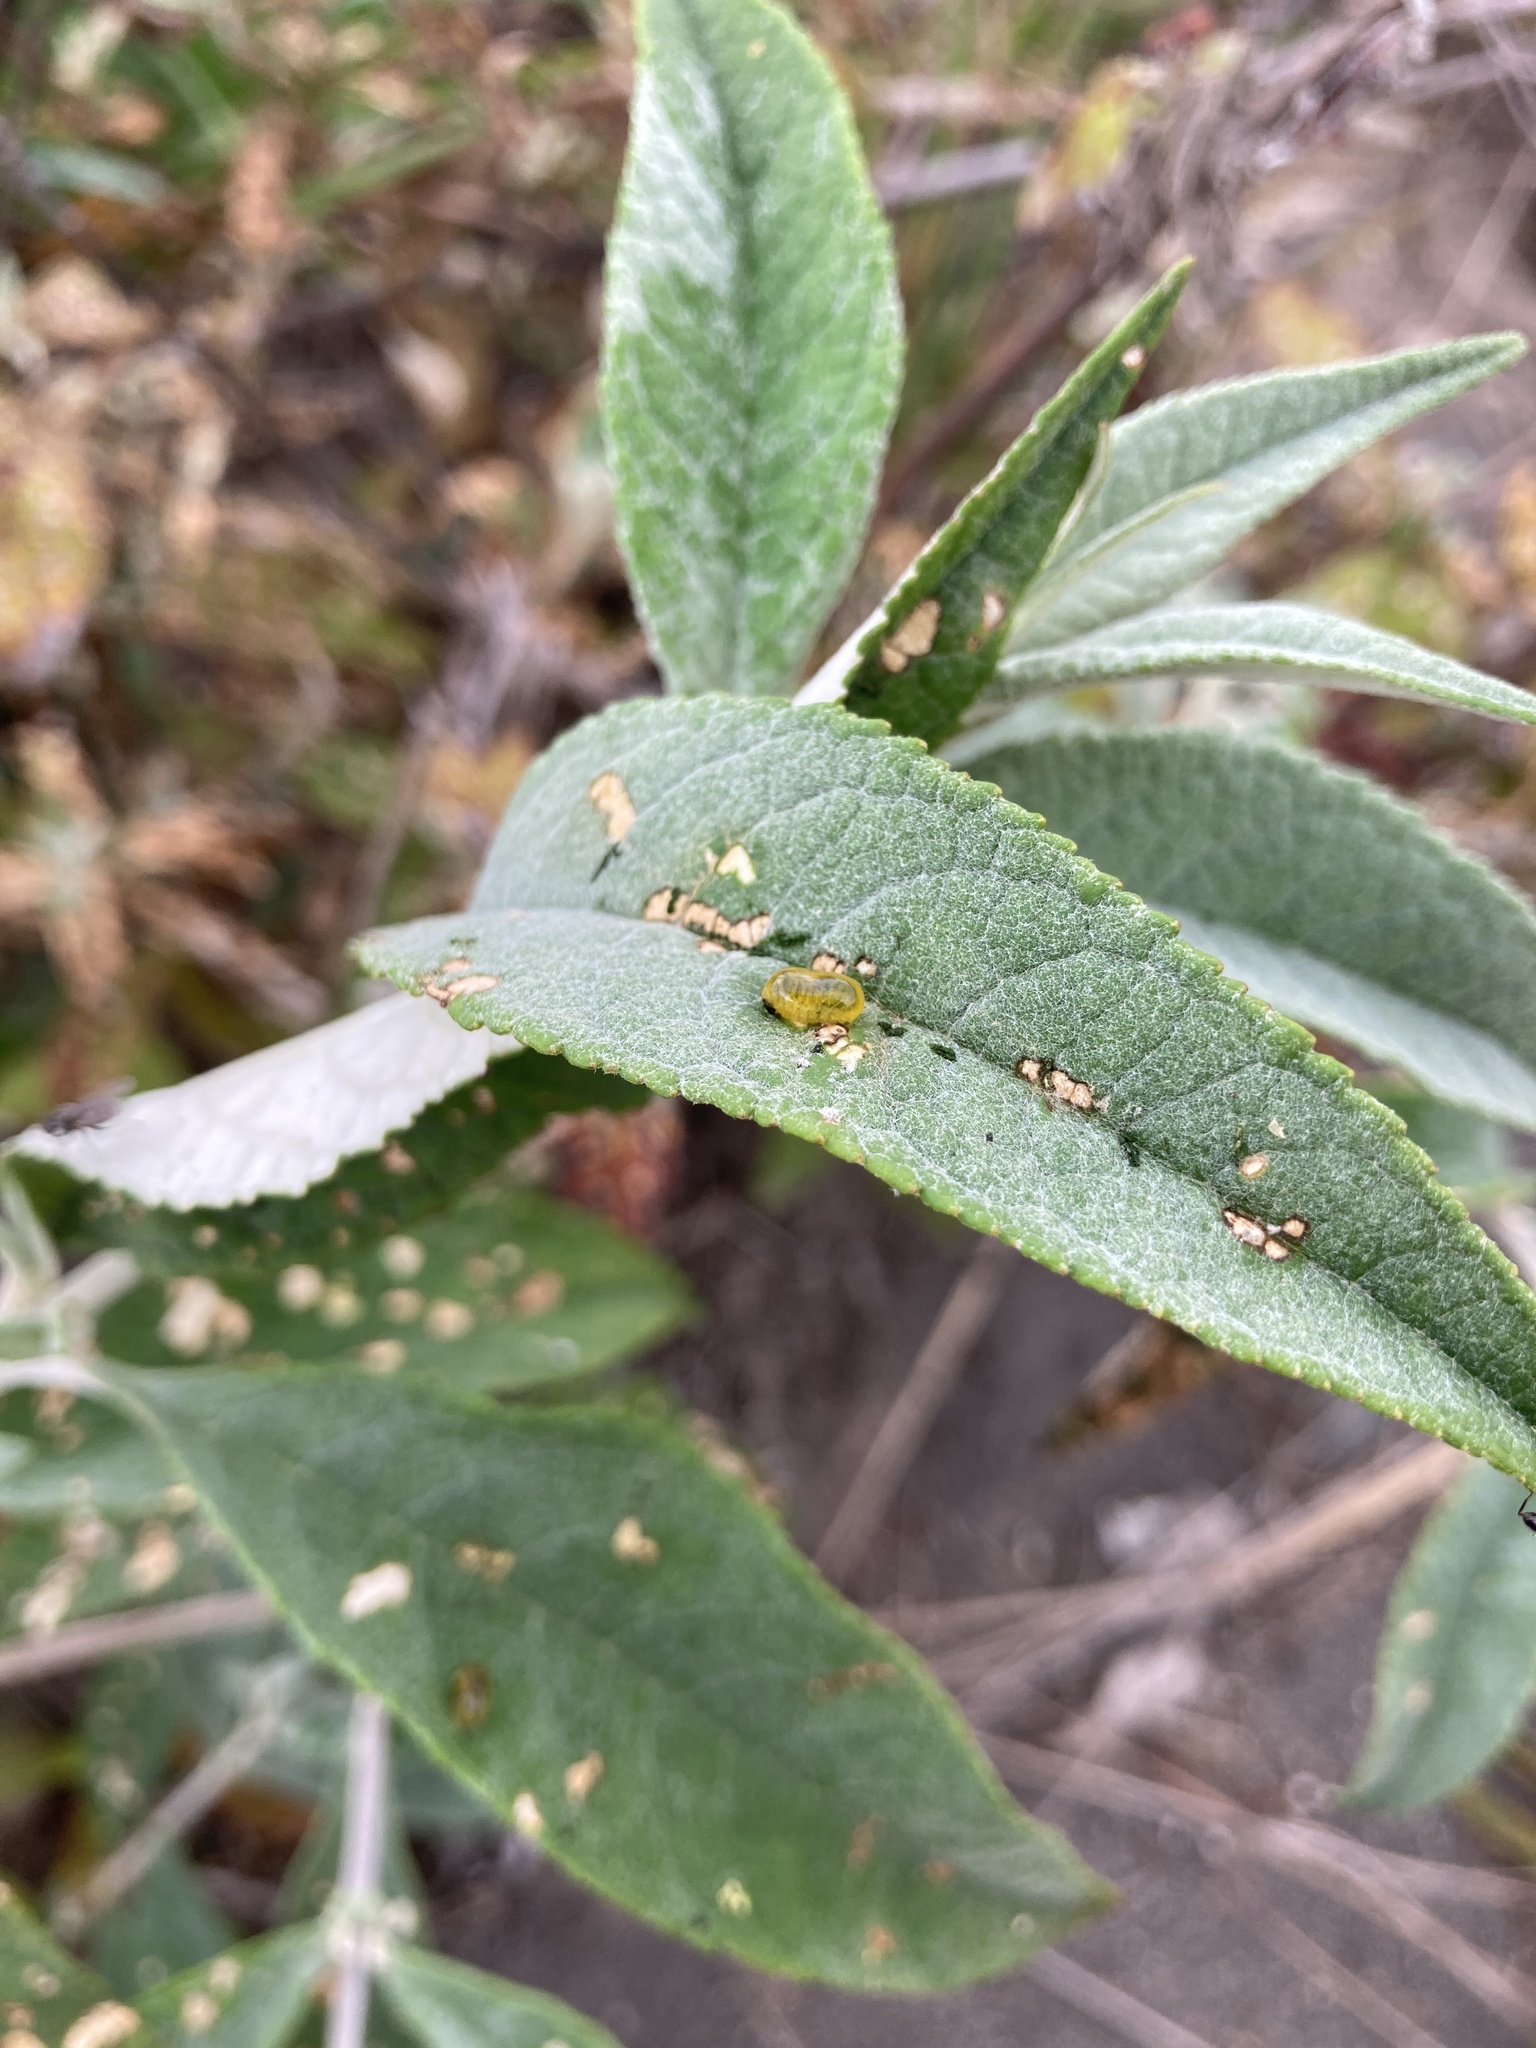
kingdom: Animalia
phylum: Arthropoda
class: Insecta
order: Coleoptera
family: Curculionidae
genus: Cleopus
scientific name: Cleopus japonicus
